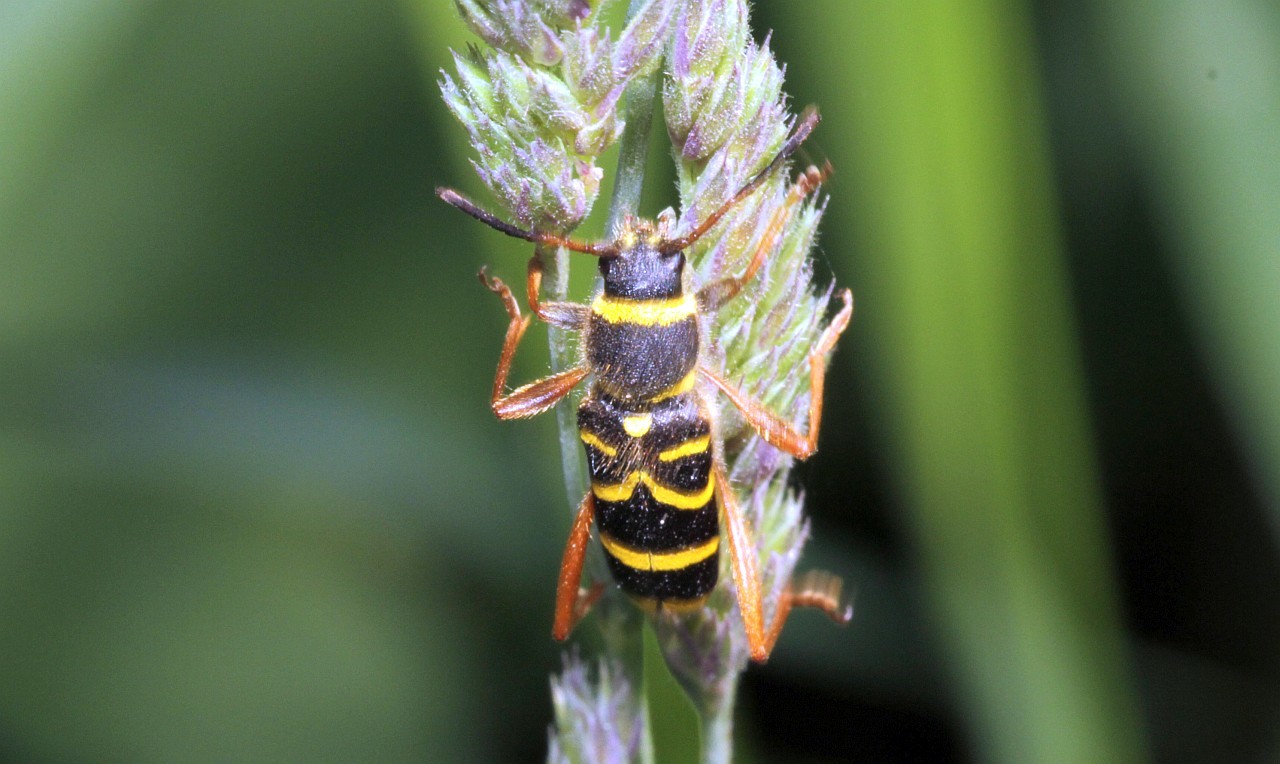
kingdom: Animalia
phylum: Arthropoda
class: Insecta
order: Coleoptera
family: Cerambycidae
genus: Clytus
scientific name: Clytus arietis
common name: Wasp beetle
